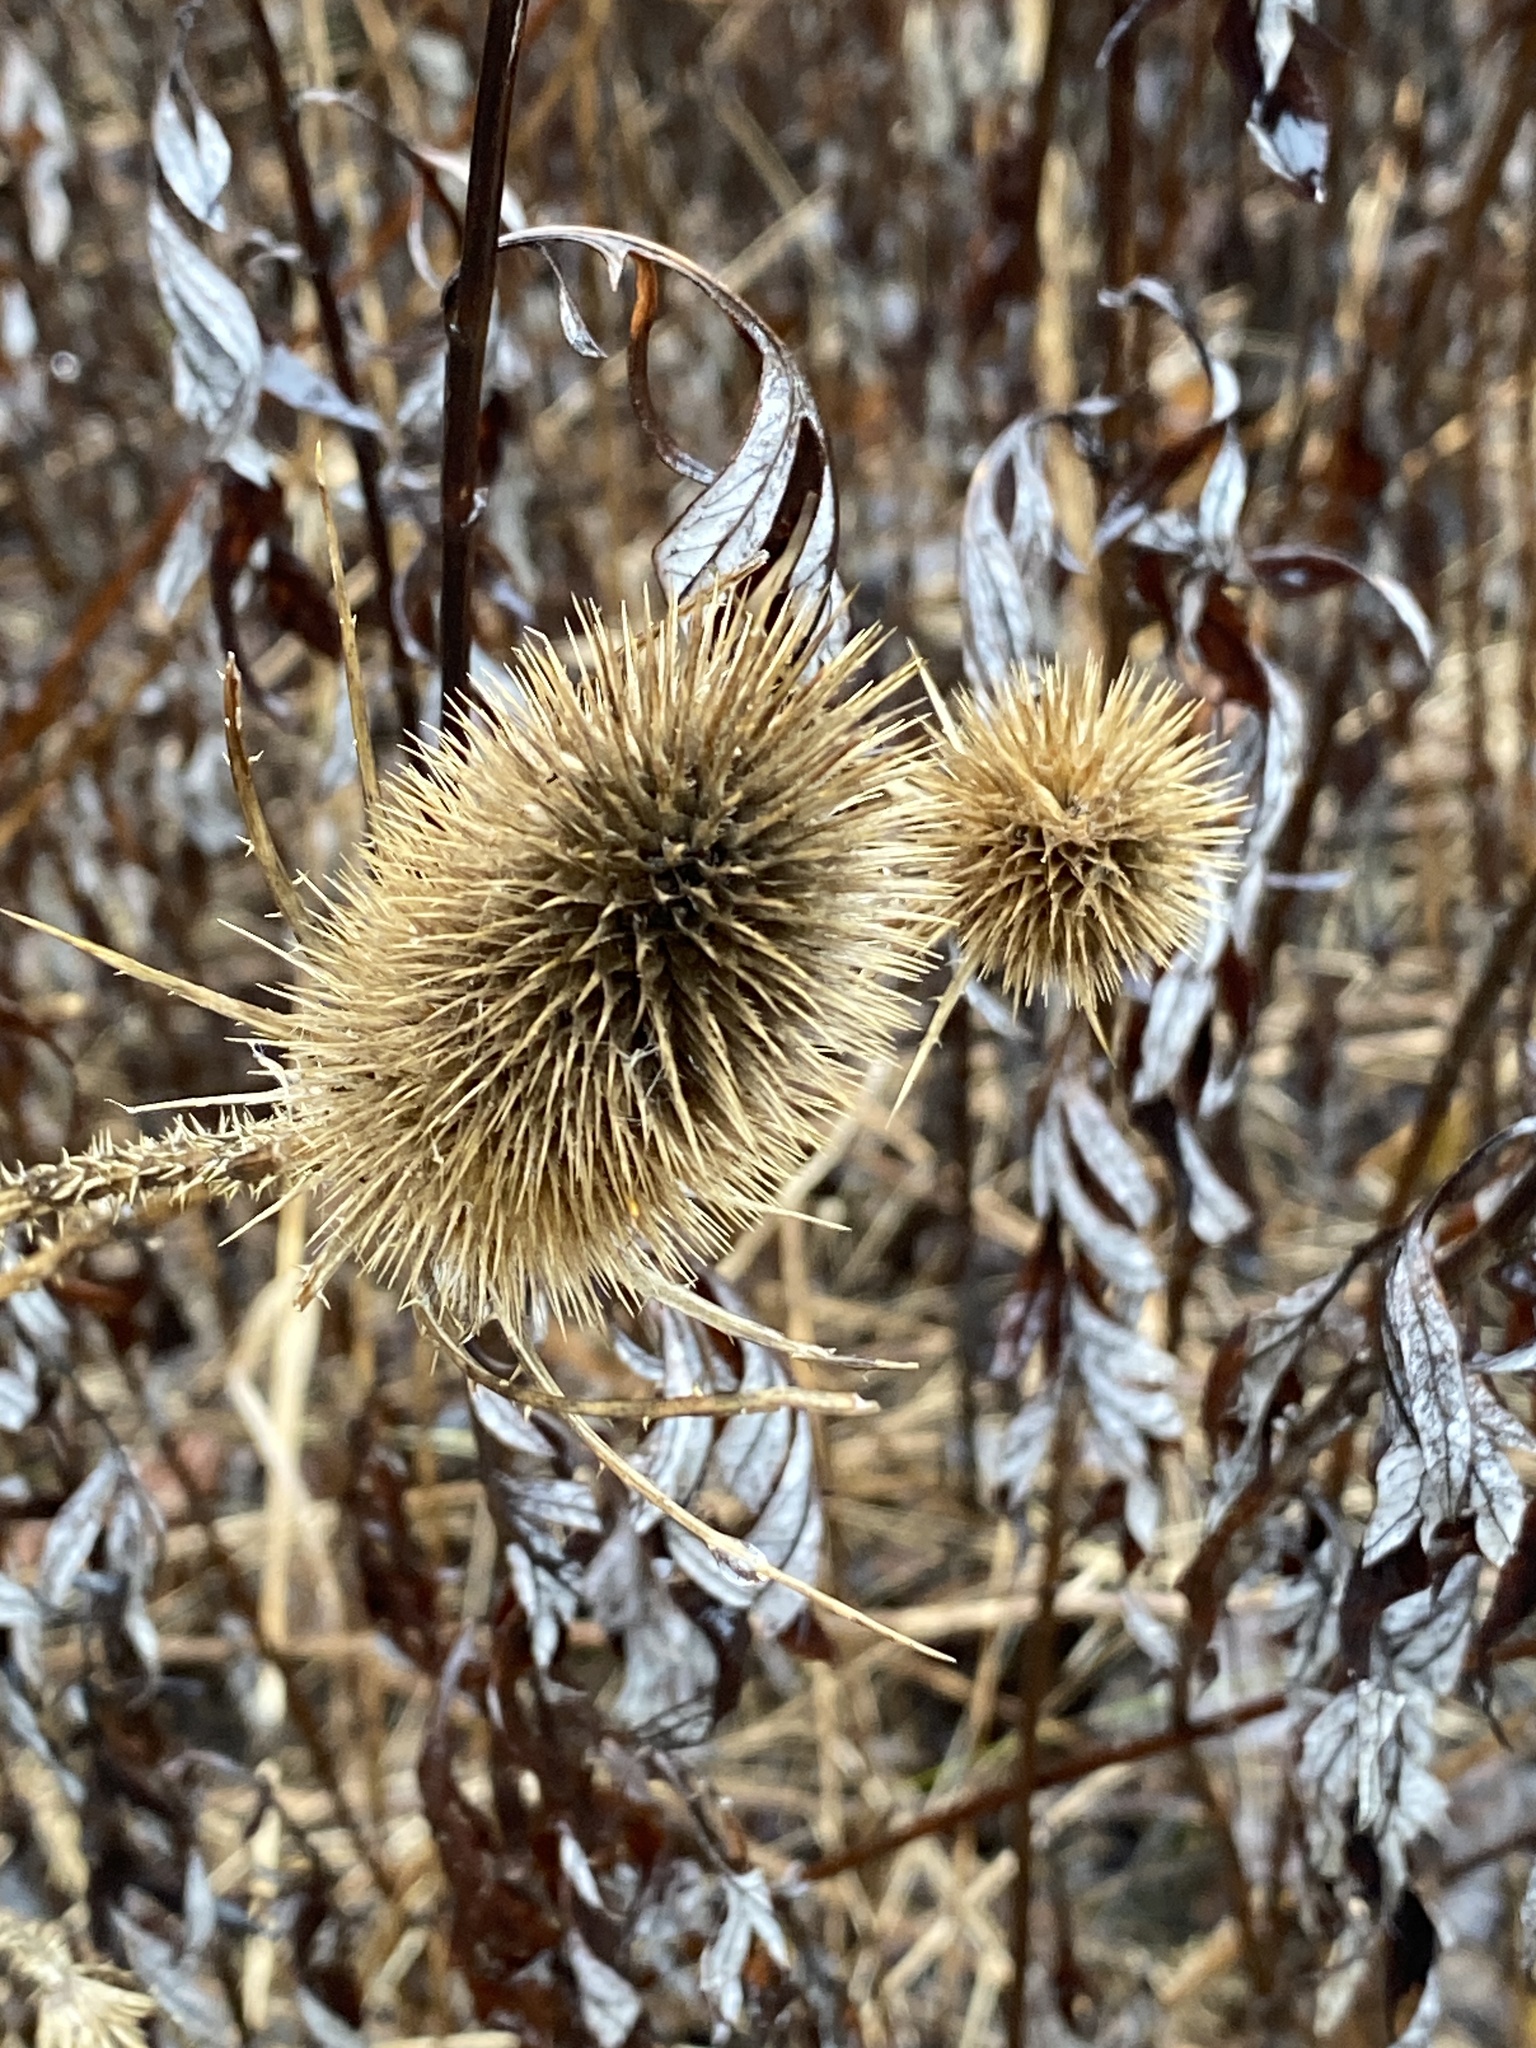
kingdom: Plantae
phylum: Tracheophyta
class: Magnoliopsida
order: Dipsacales
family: Caprifoliaceae
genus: Dipsacus
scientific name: Dipsacus fullonum
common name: Teasel
